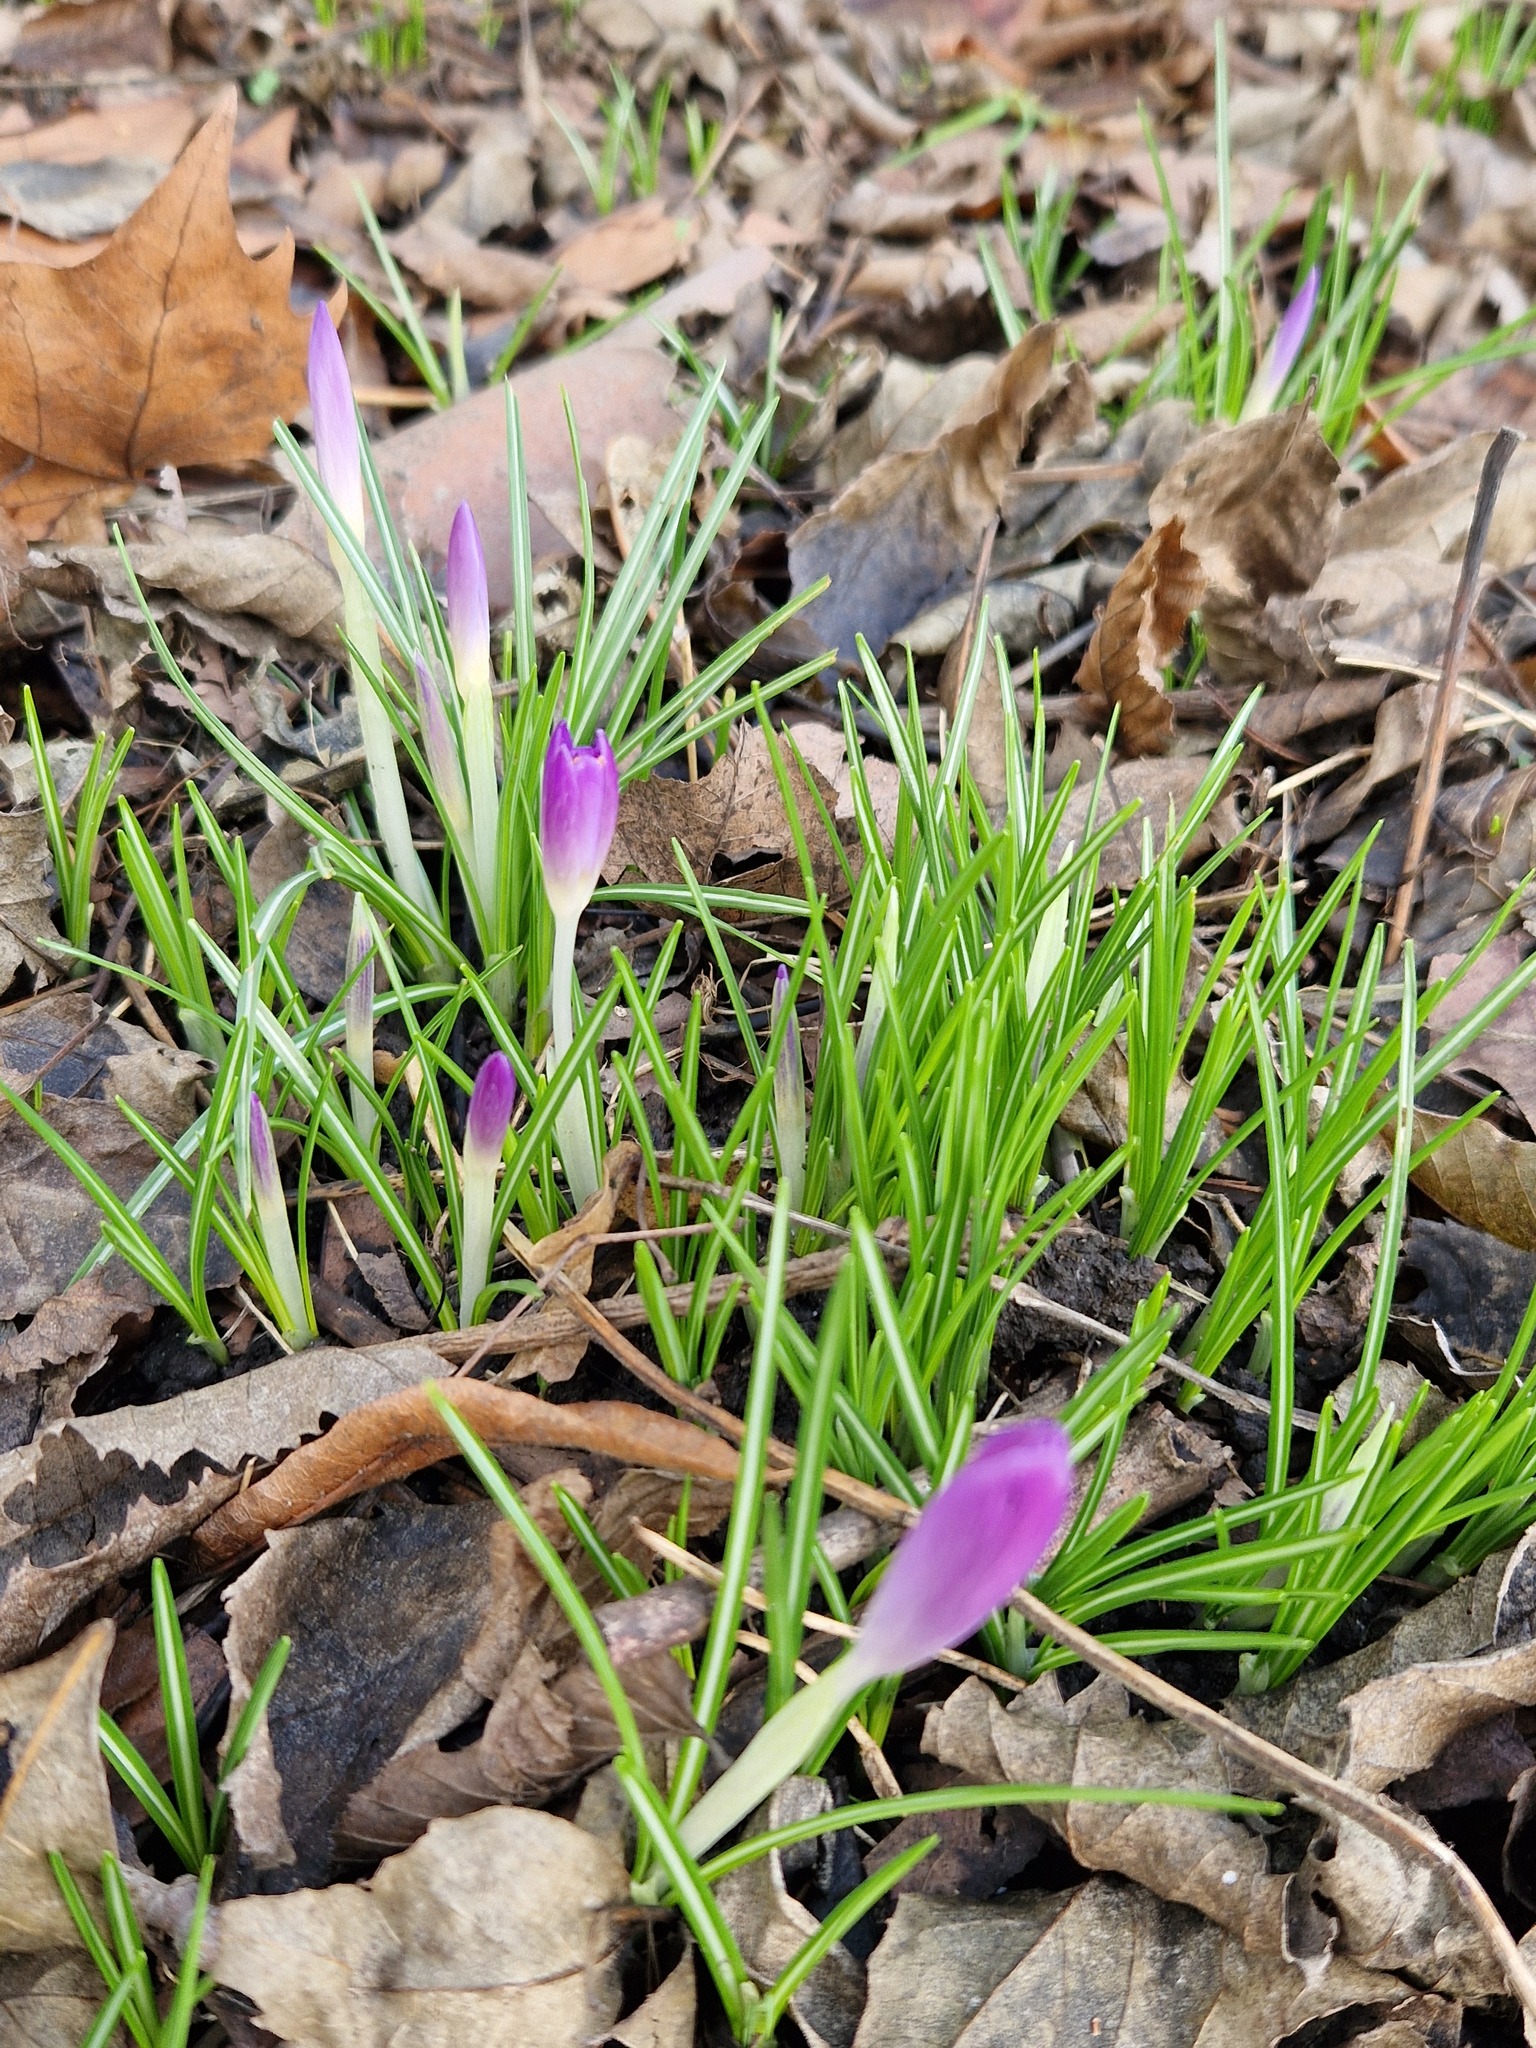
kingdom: Plantae
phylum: Tracheophyta
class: Liliopsida
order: Asparagales
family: Iridaceae
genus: Crocus
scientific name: Crocus tommasinianus
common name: Early crocus
